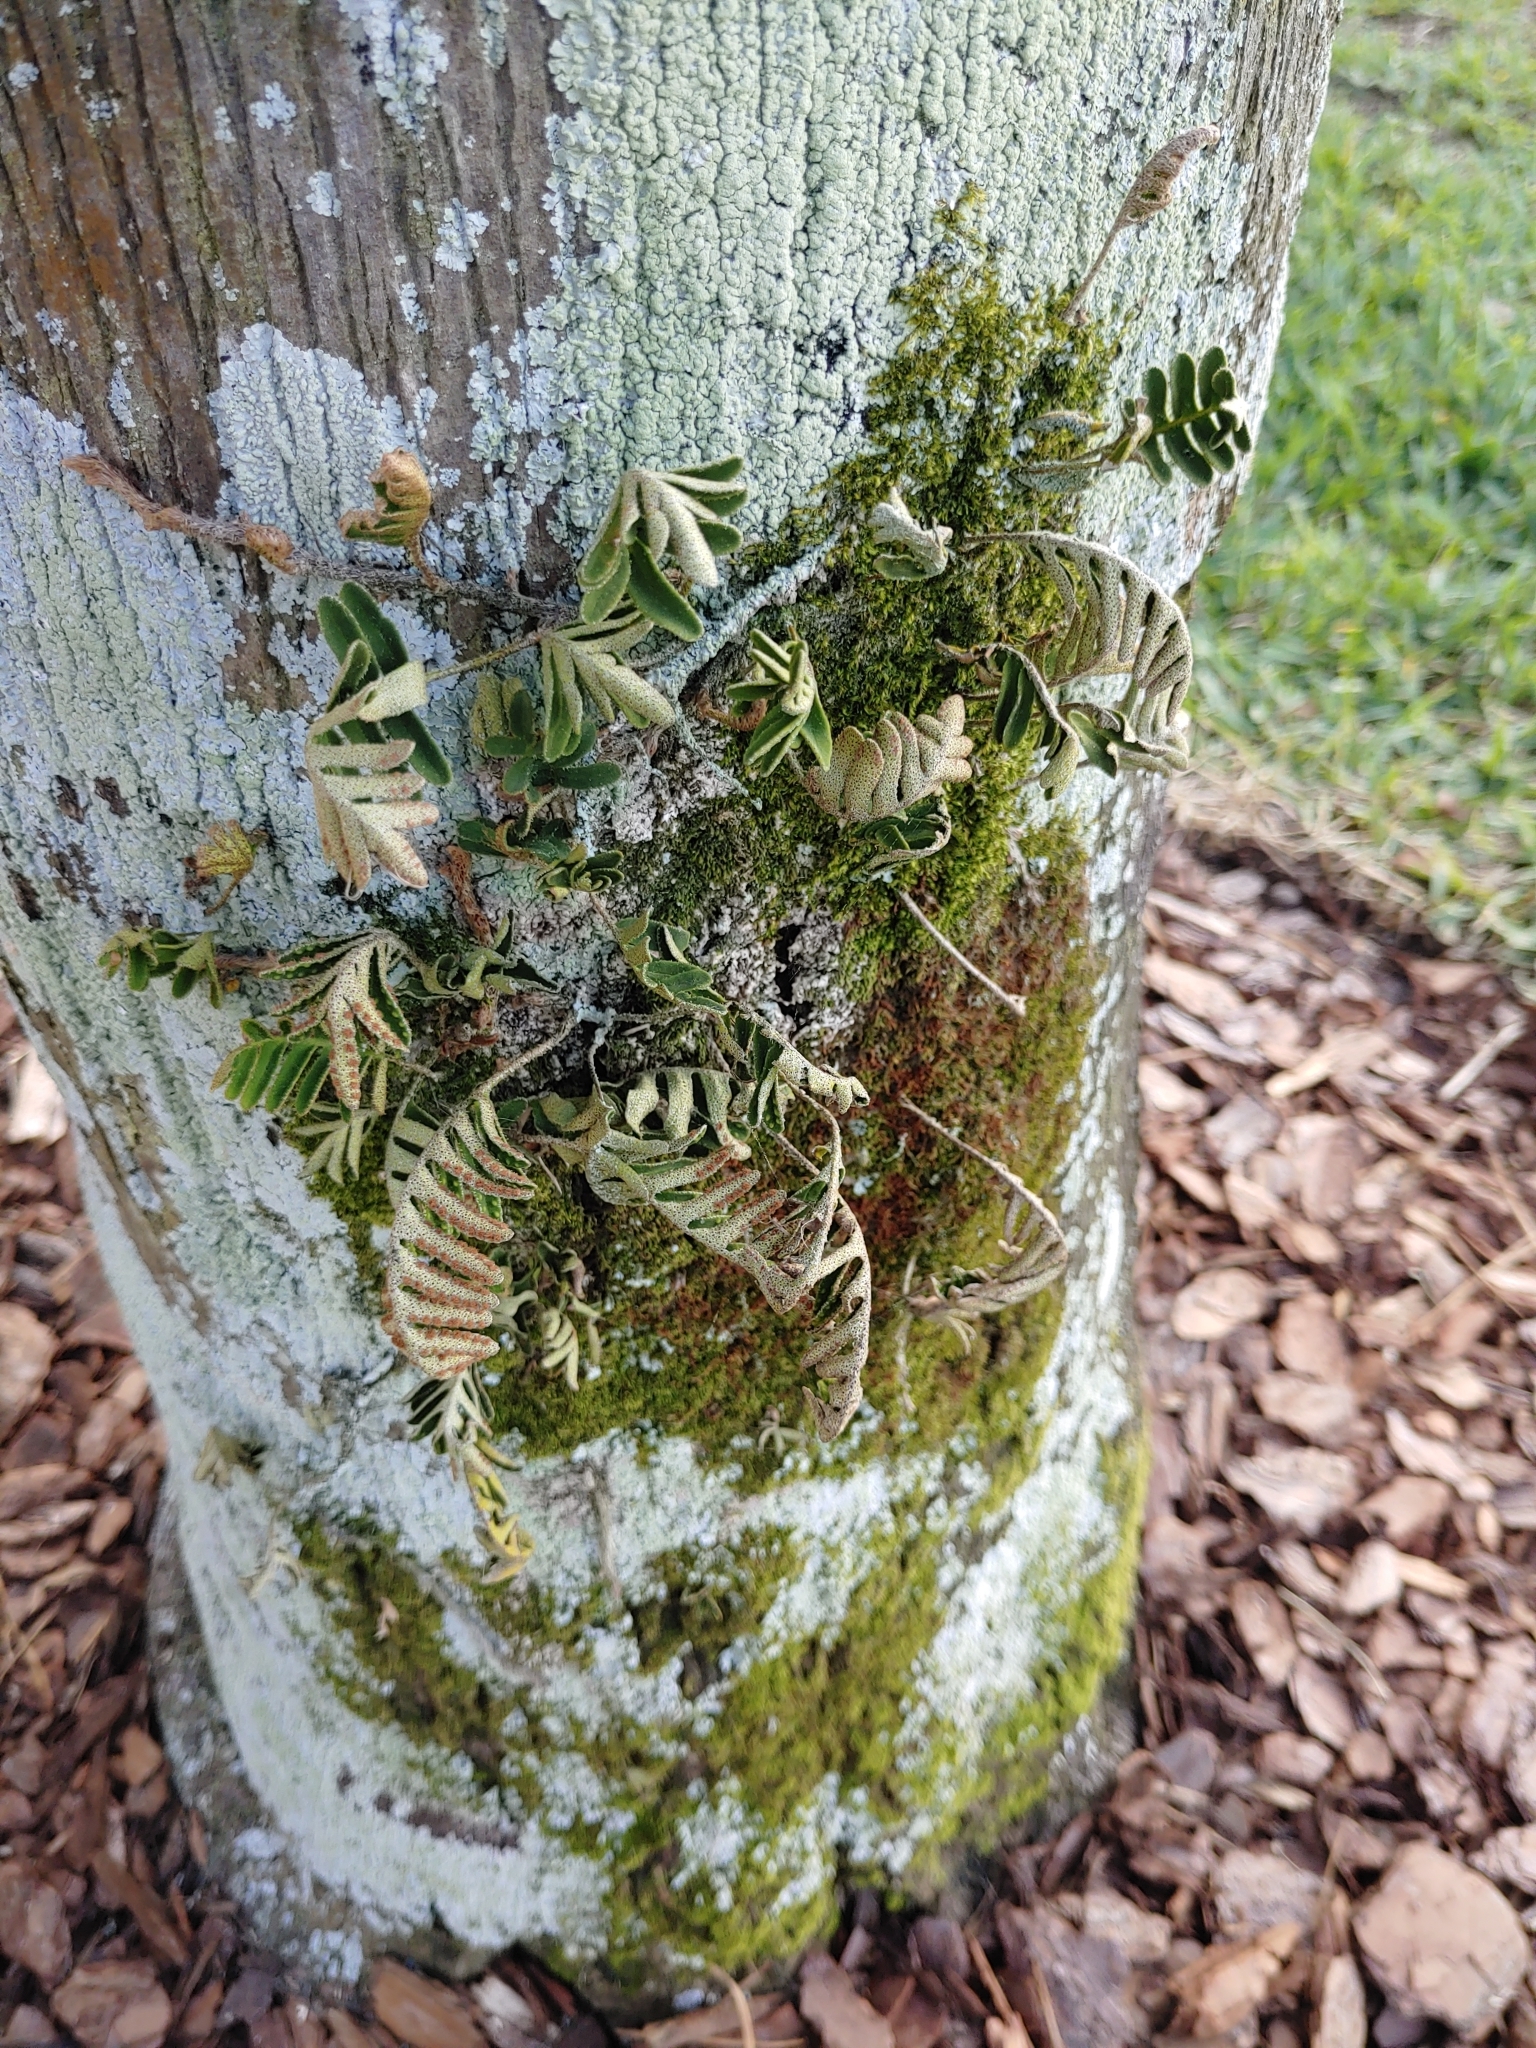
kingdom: Plantae
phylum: Tracheophyta
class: Polypodiopsida
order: Polypodiales
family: Polypodiaceae
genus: Pleopeltis
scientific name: Pleopeltis michauxiana
